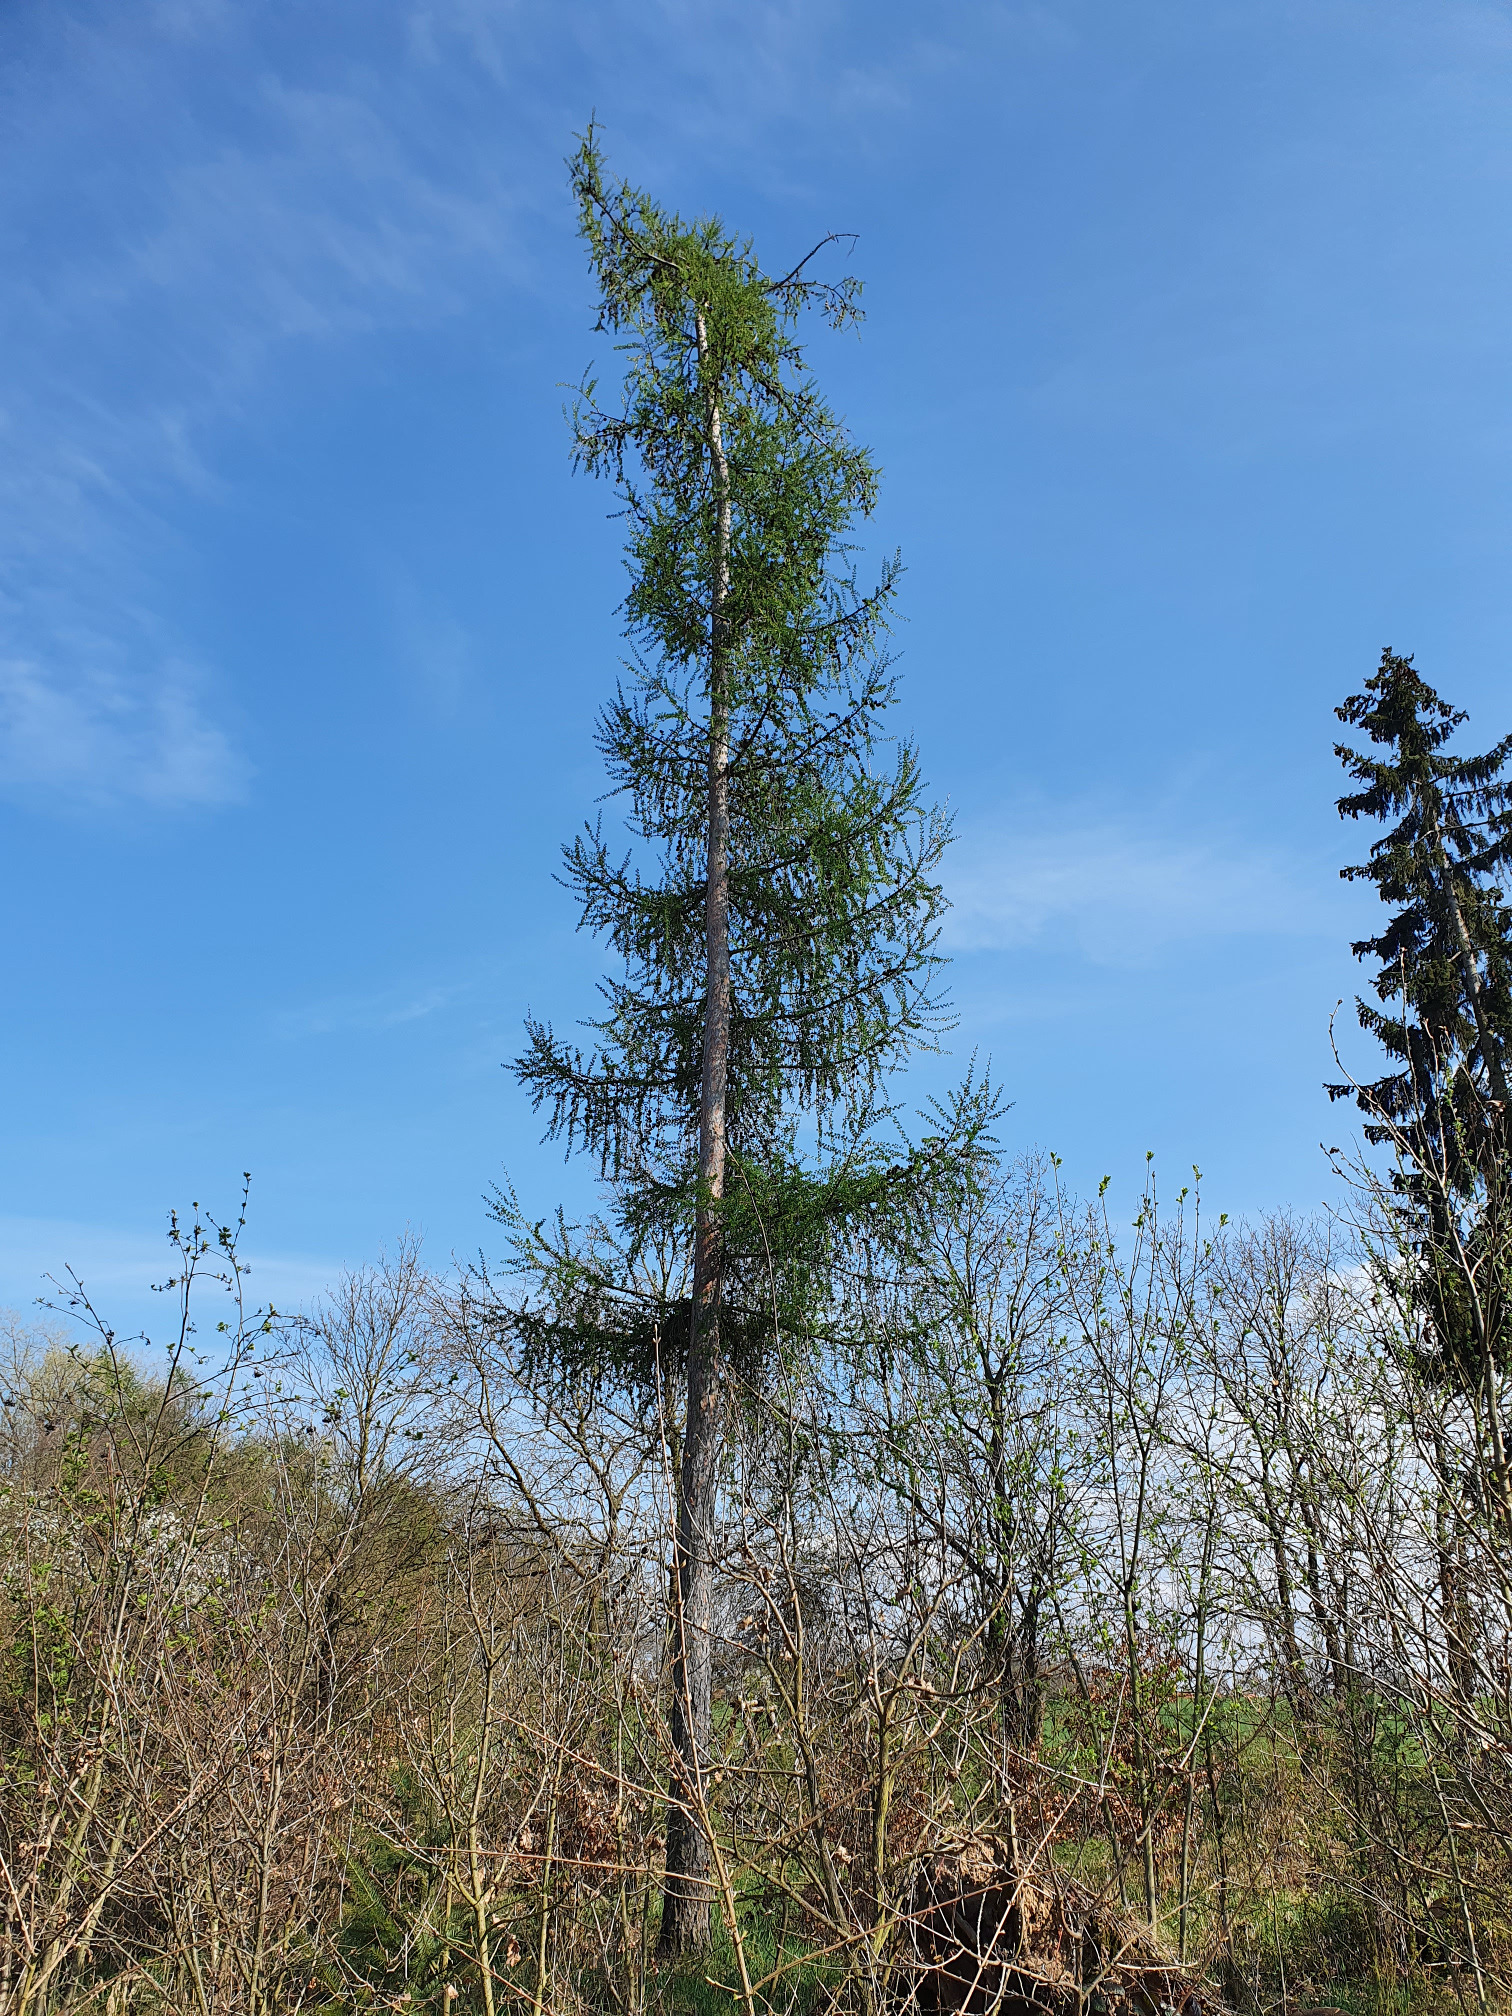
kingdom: Plantae
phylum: Tracheophyta
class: Pinopsida
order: Pinales
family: Pinaceae
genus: Larix
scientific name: Larix decidua
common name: European larch
